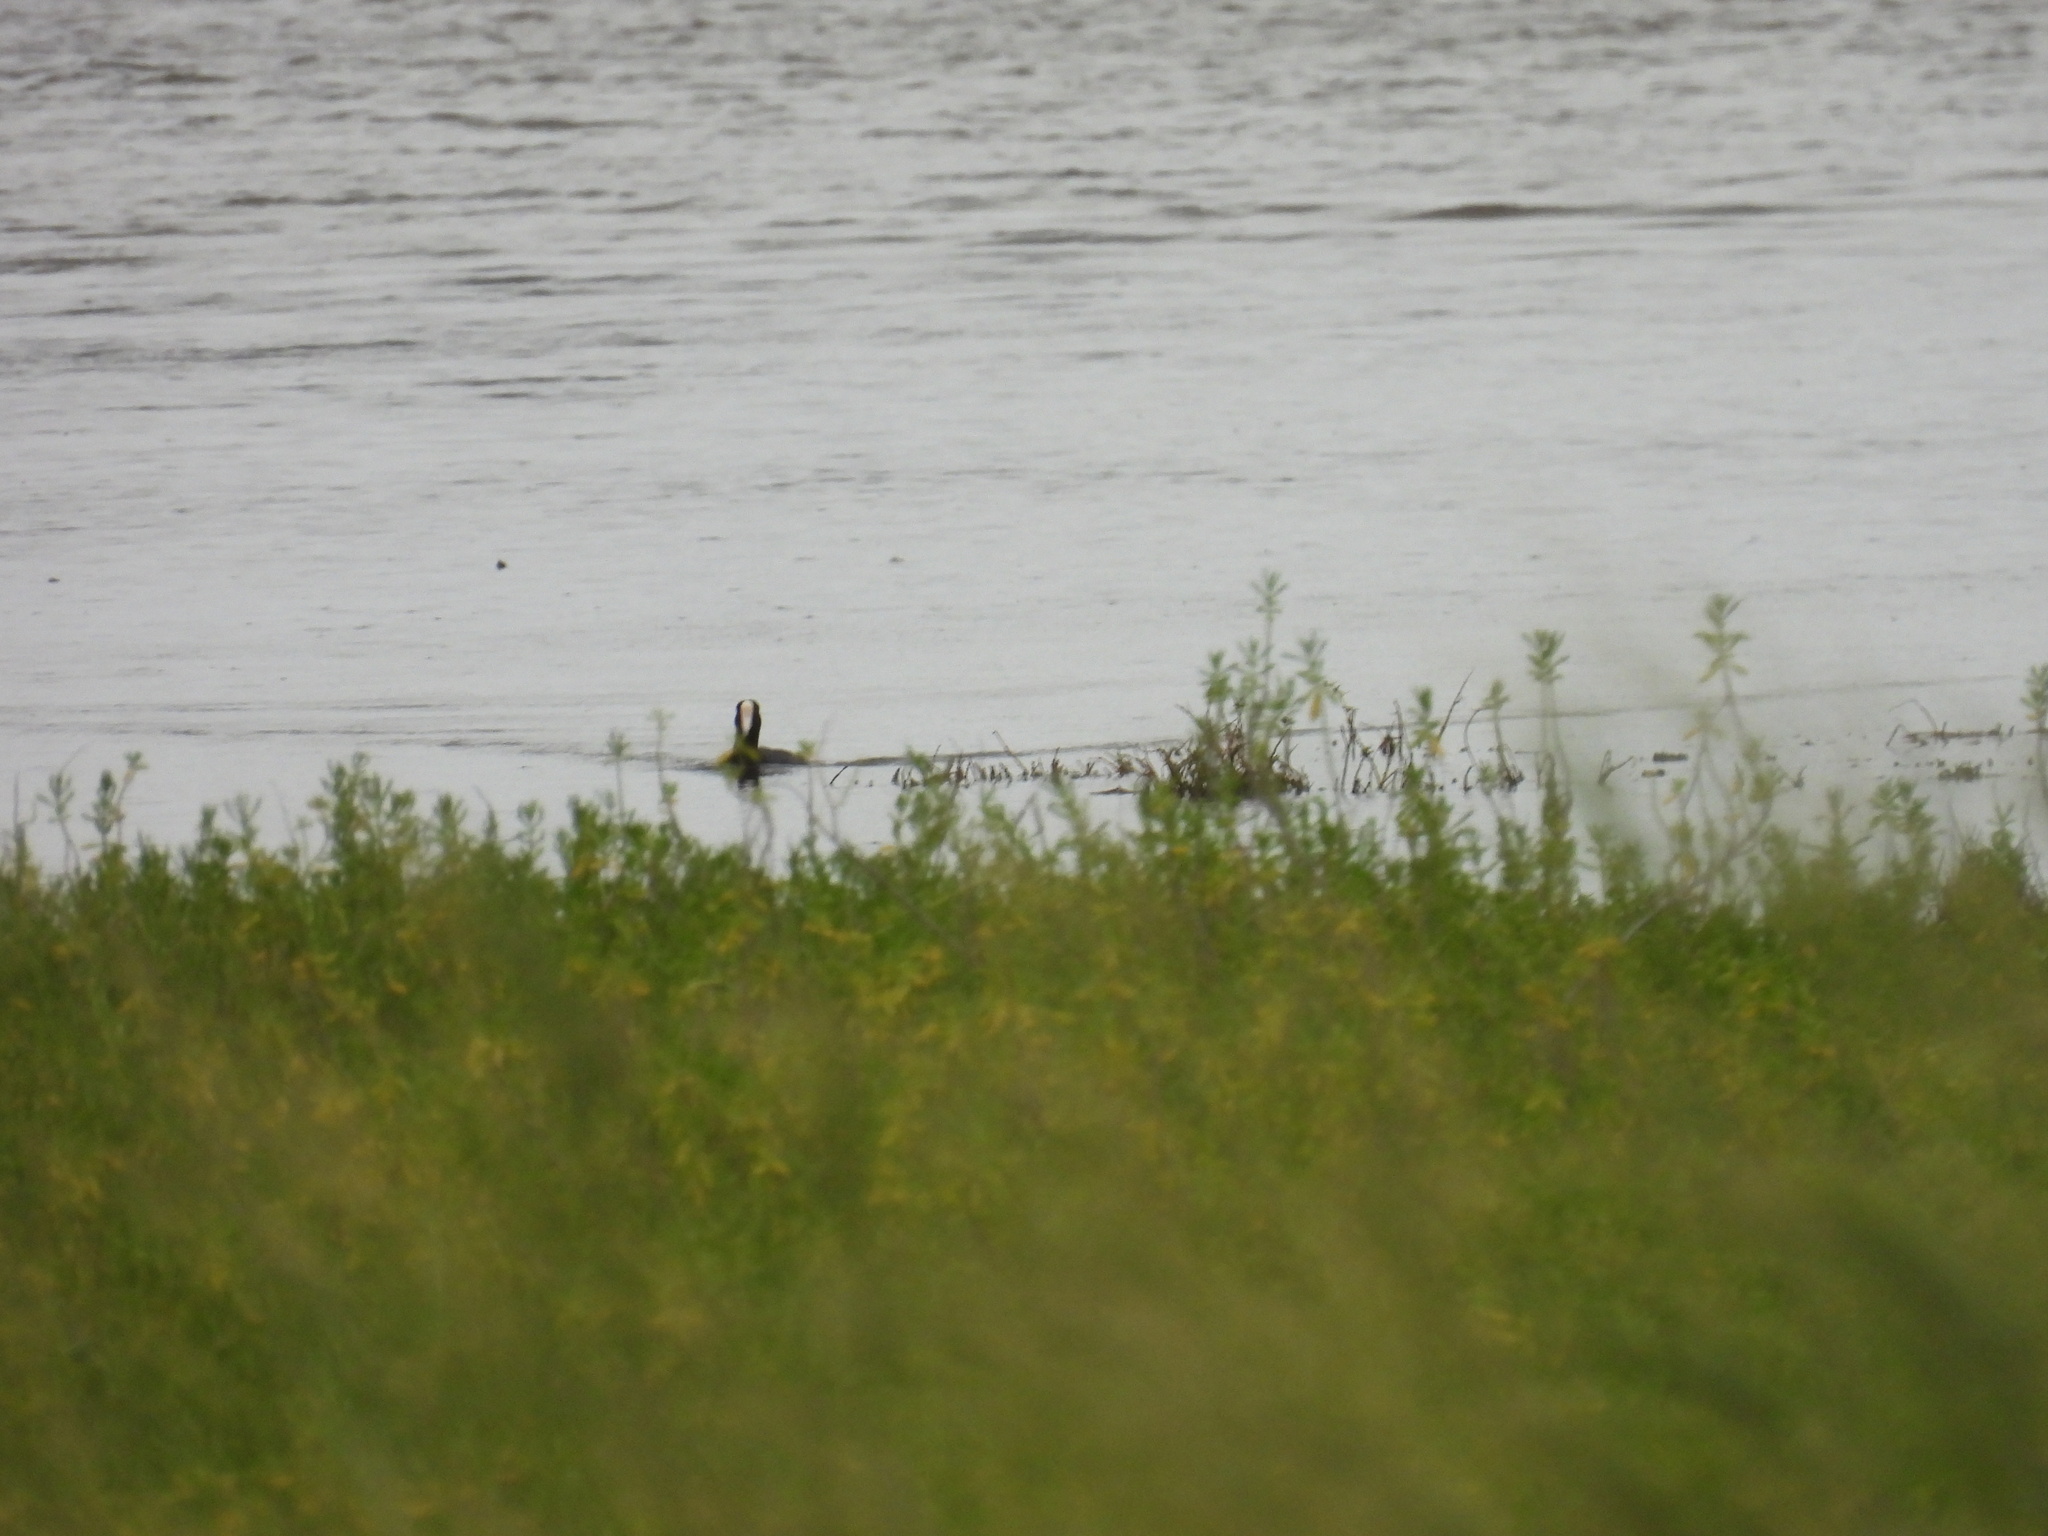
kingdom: Animalia
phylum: Chordata
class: Aves
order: Gruiformes
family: Rallidae
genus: Fulica
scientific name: Fulica alai
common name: Hawaiian coot
